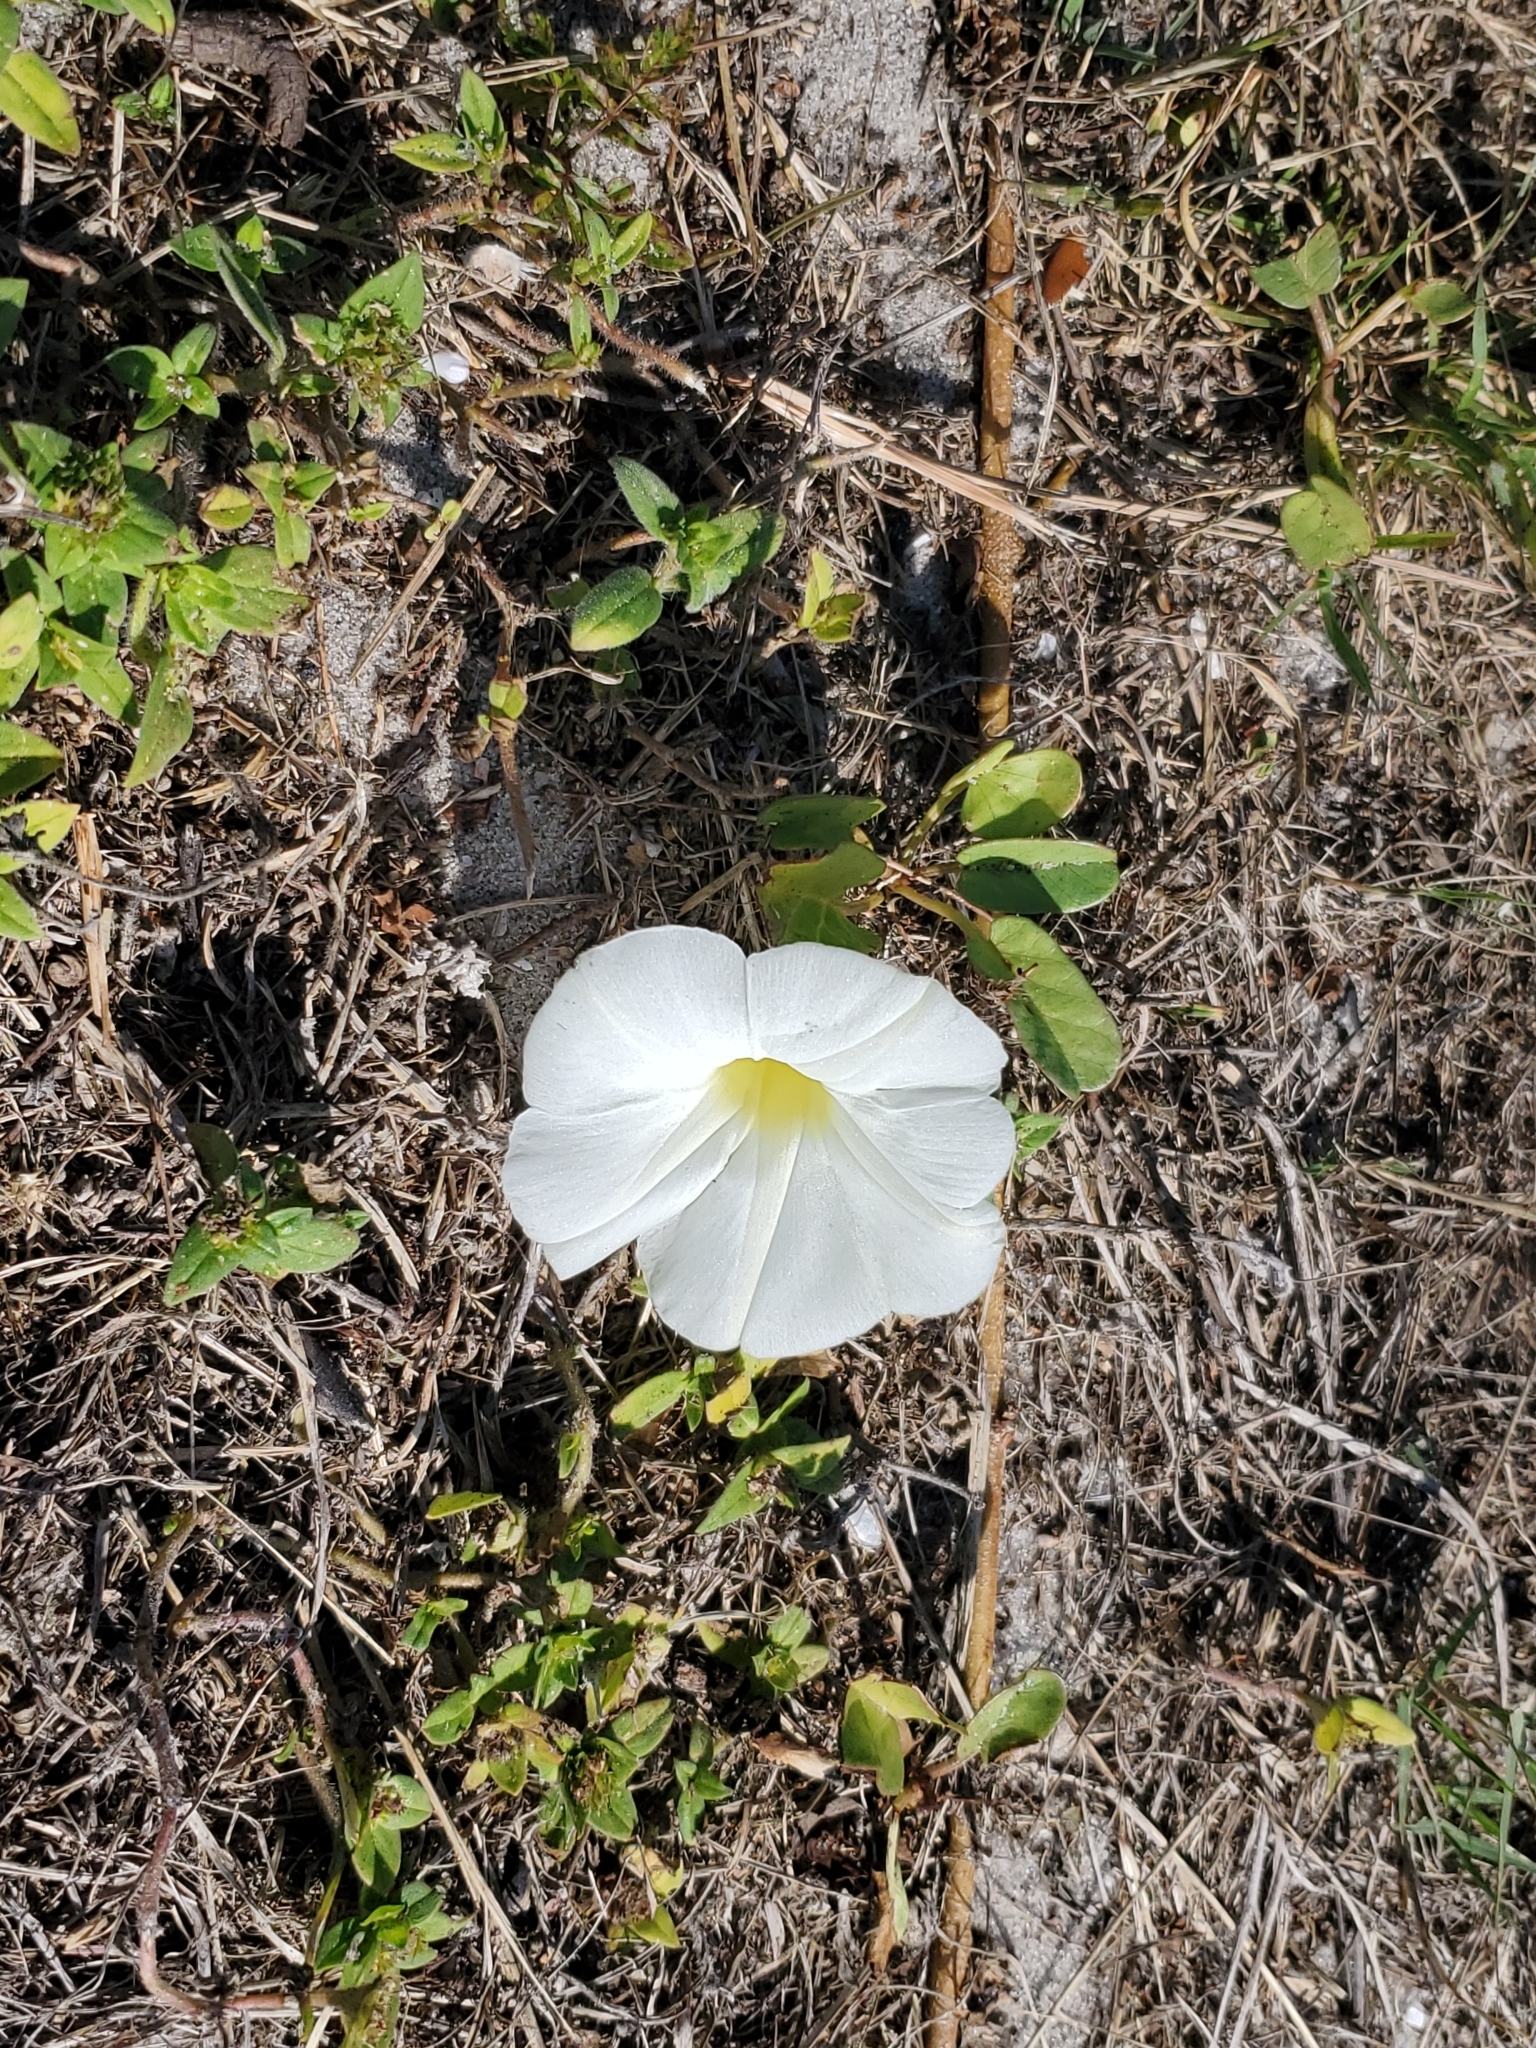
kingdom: Plantae
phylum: Tracheophyta
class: Magnoliopsida
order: Solanales
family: Convolvulaceae
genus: Ipomoea
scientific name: Ipomoea imperati
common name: Fiddle-leaf morning-glory
